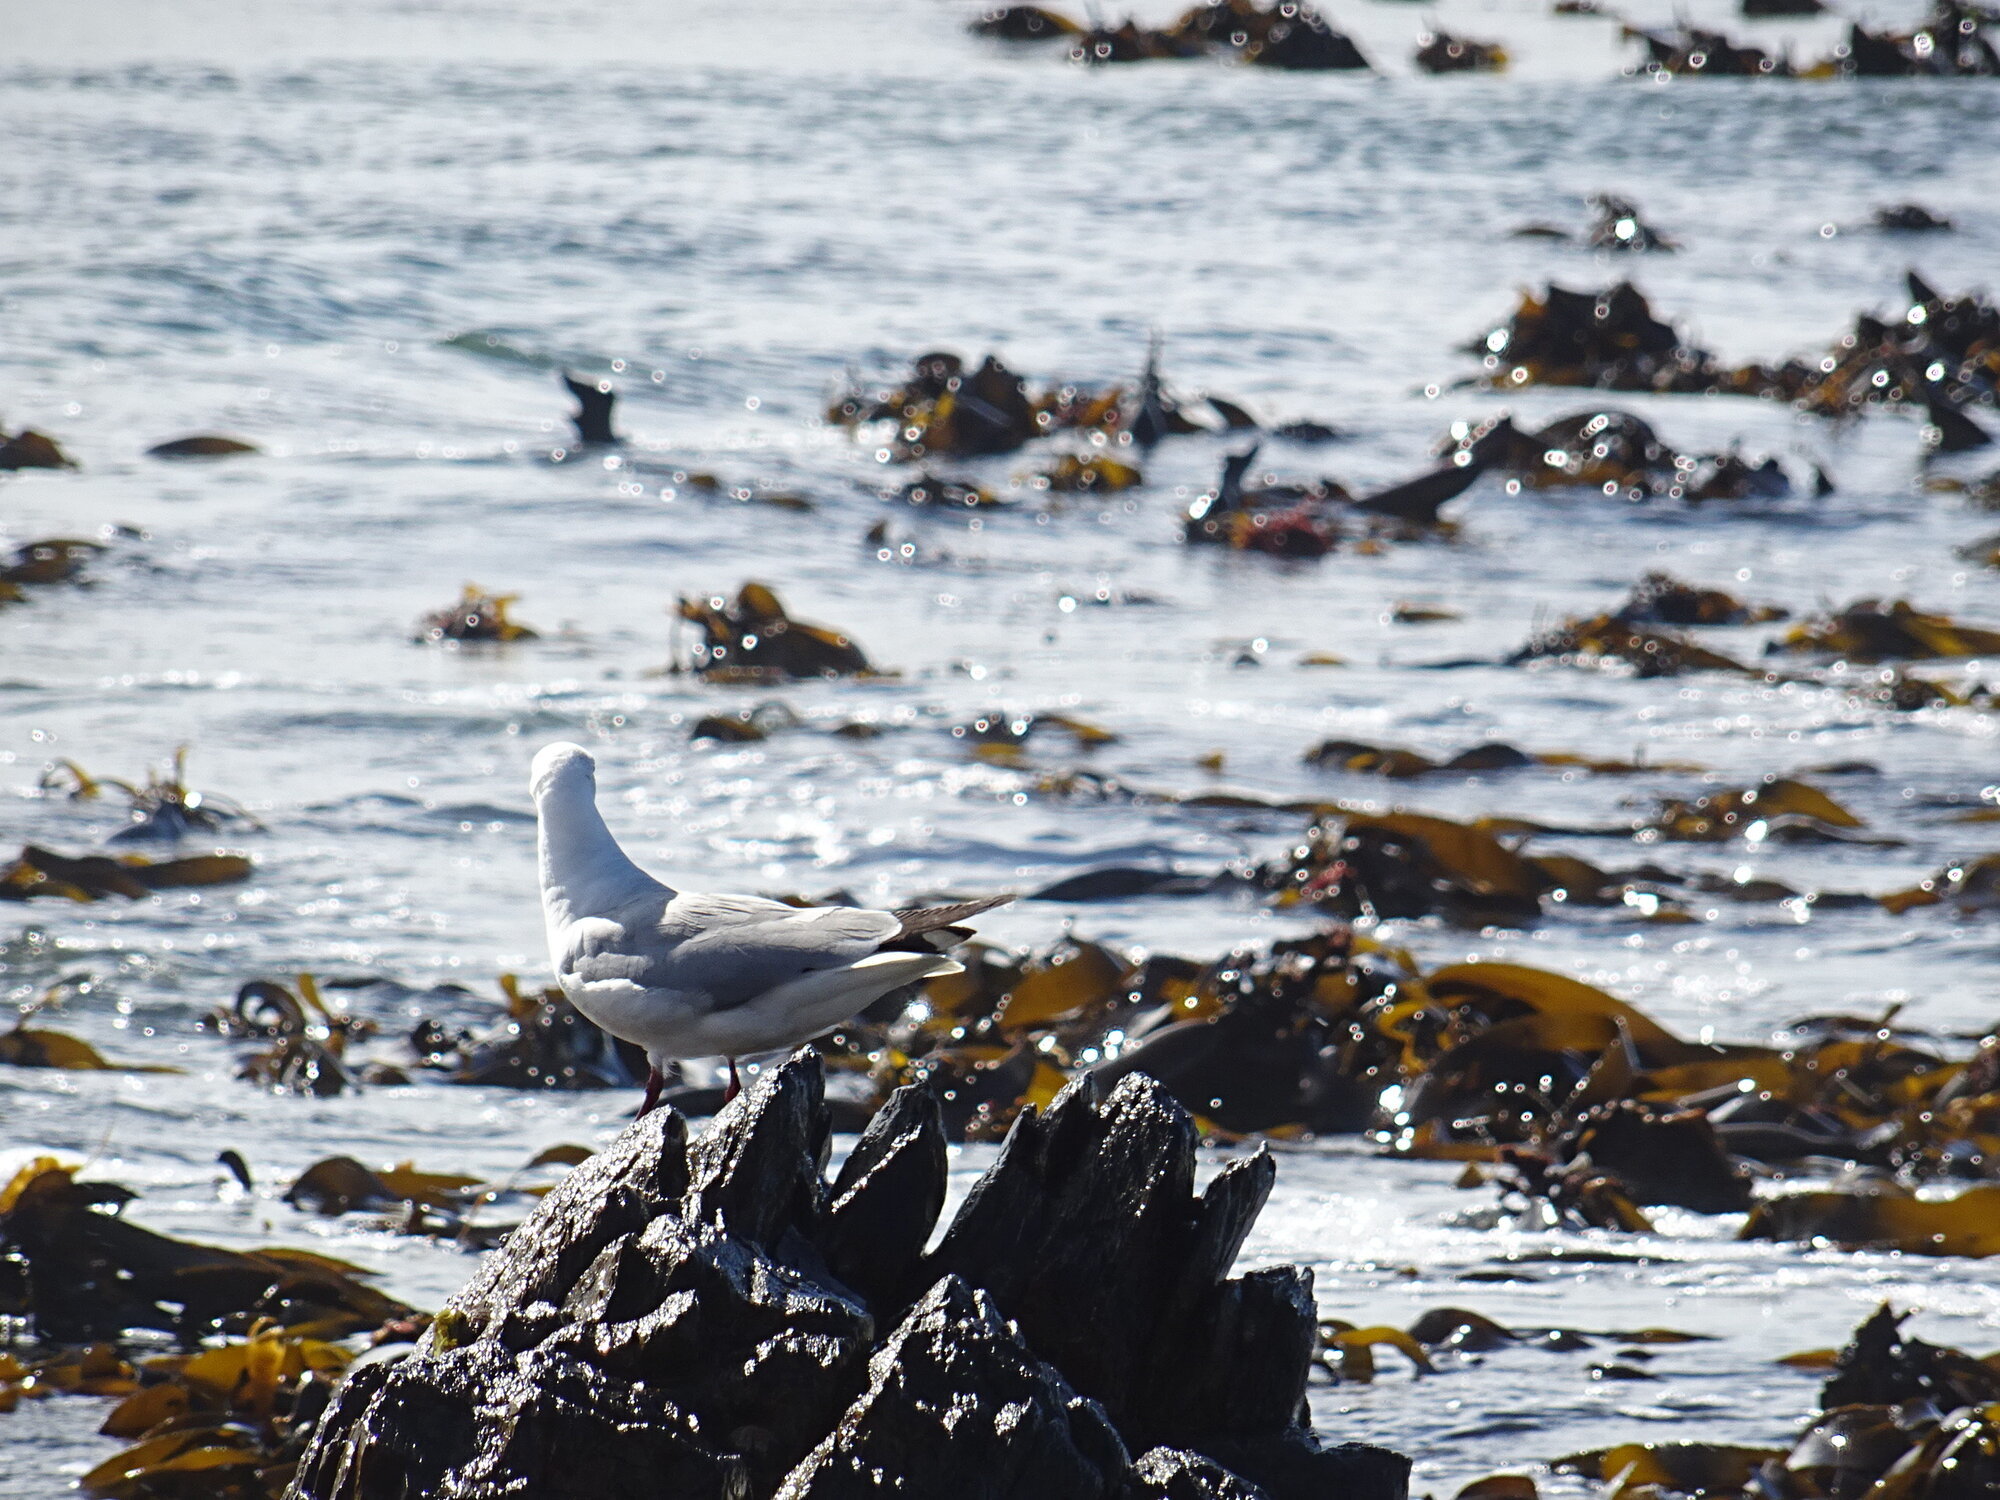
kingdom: Animalia
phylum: Chordata
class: Aves
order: Charadriiformes
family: Laridae
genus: Chroicocephalus
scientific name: Chroicocephalus hartlaubii
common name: Hartlaub's gull
